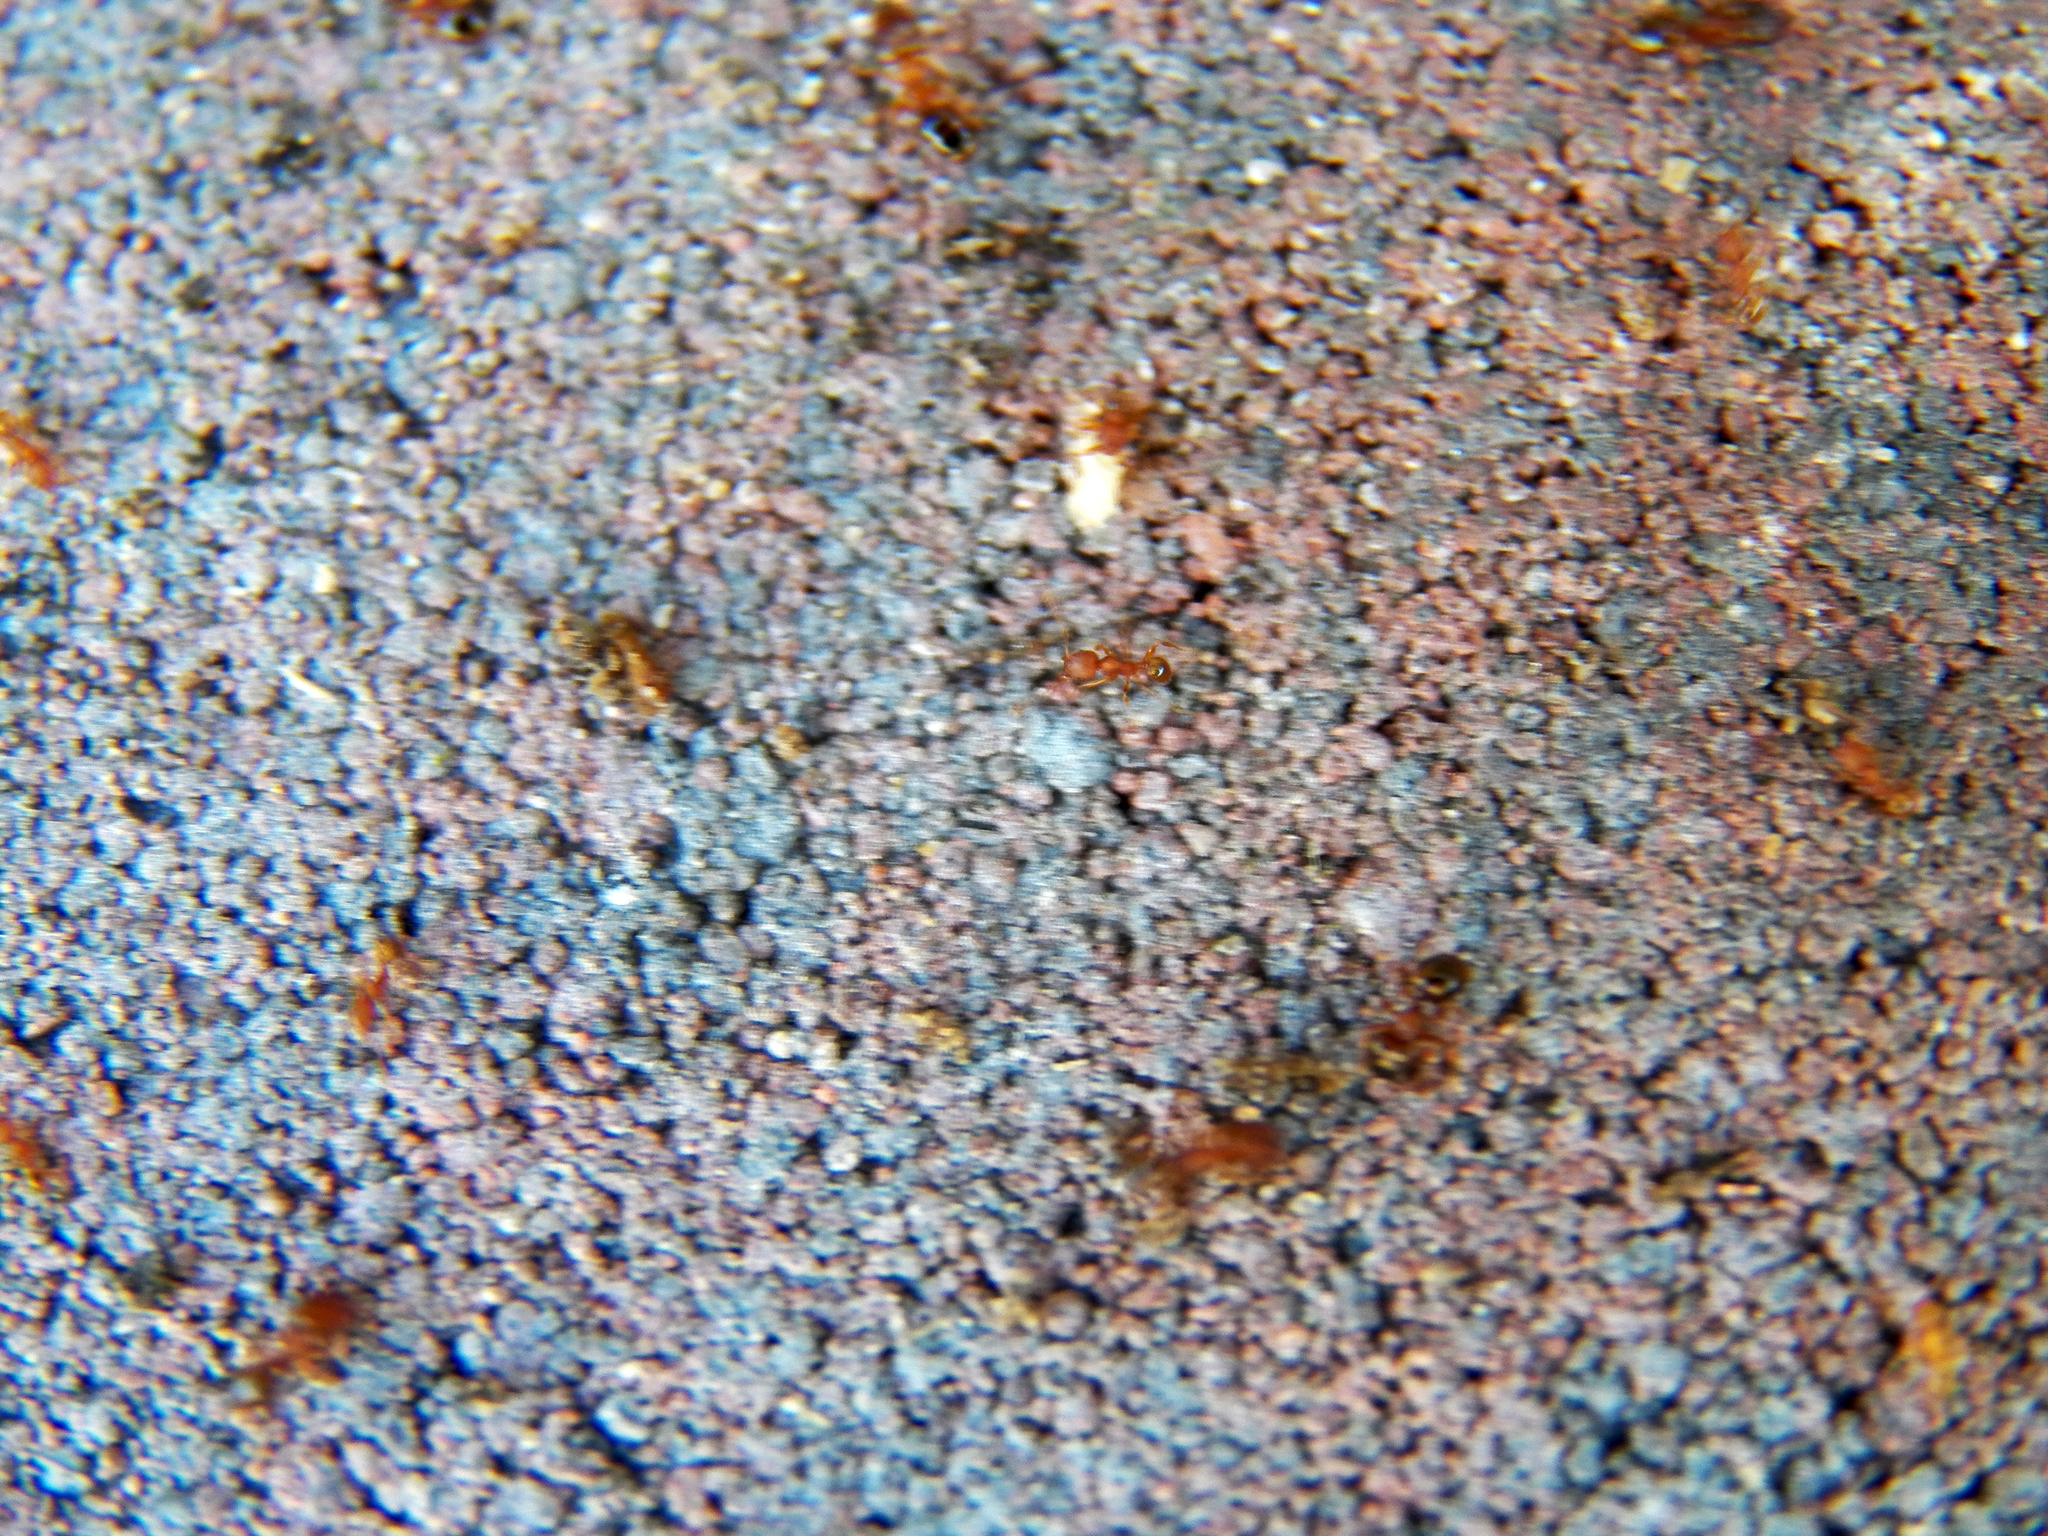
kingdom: Animalia
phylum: Arthropoda
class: Insecta
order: Hymenoptera
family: Formicidae
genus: Pheidole
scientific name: Pheidole navigans
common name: Navigating big-headed ant
